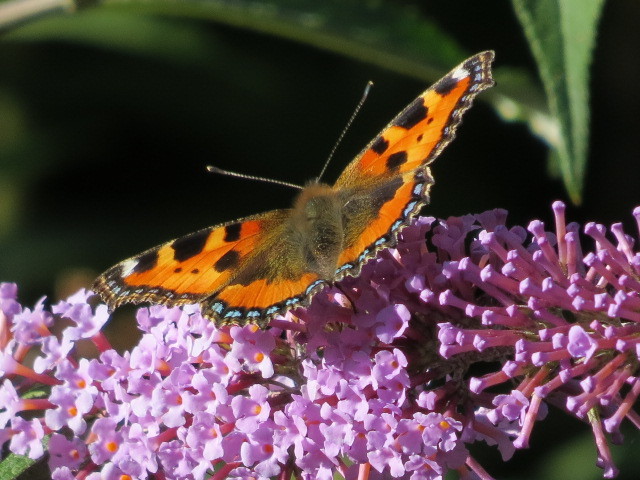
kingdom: Animalia
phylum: Arthropoda
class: Insecta
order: Lepidoptera
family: Nymphalidae
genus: Aglais
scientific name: Aglais urticae
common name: Small tortoiseshell
